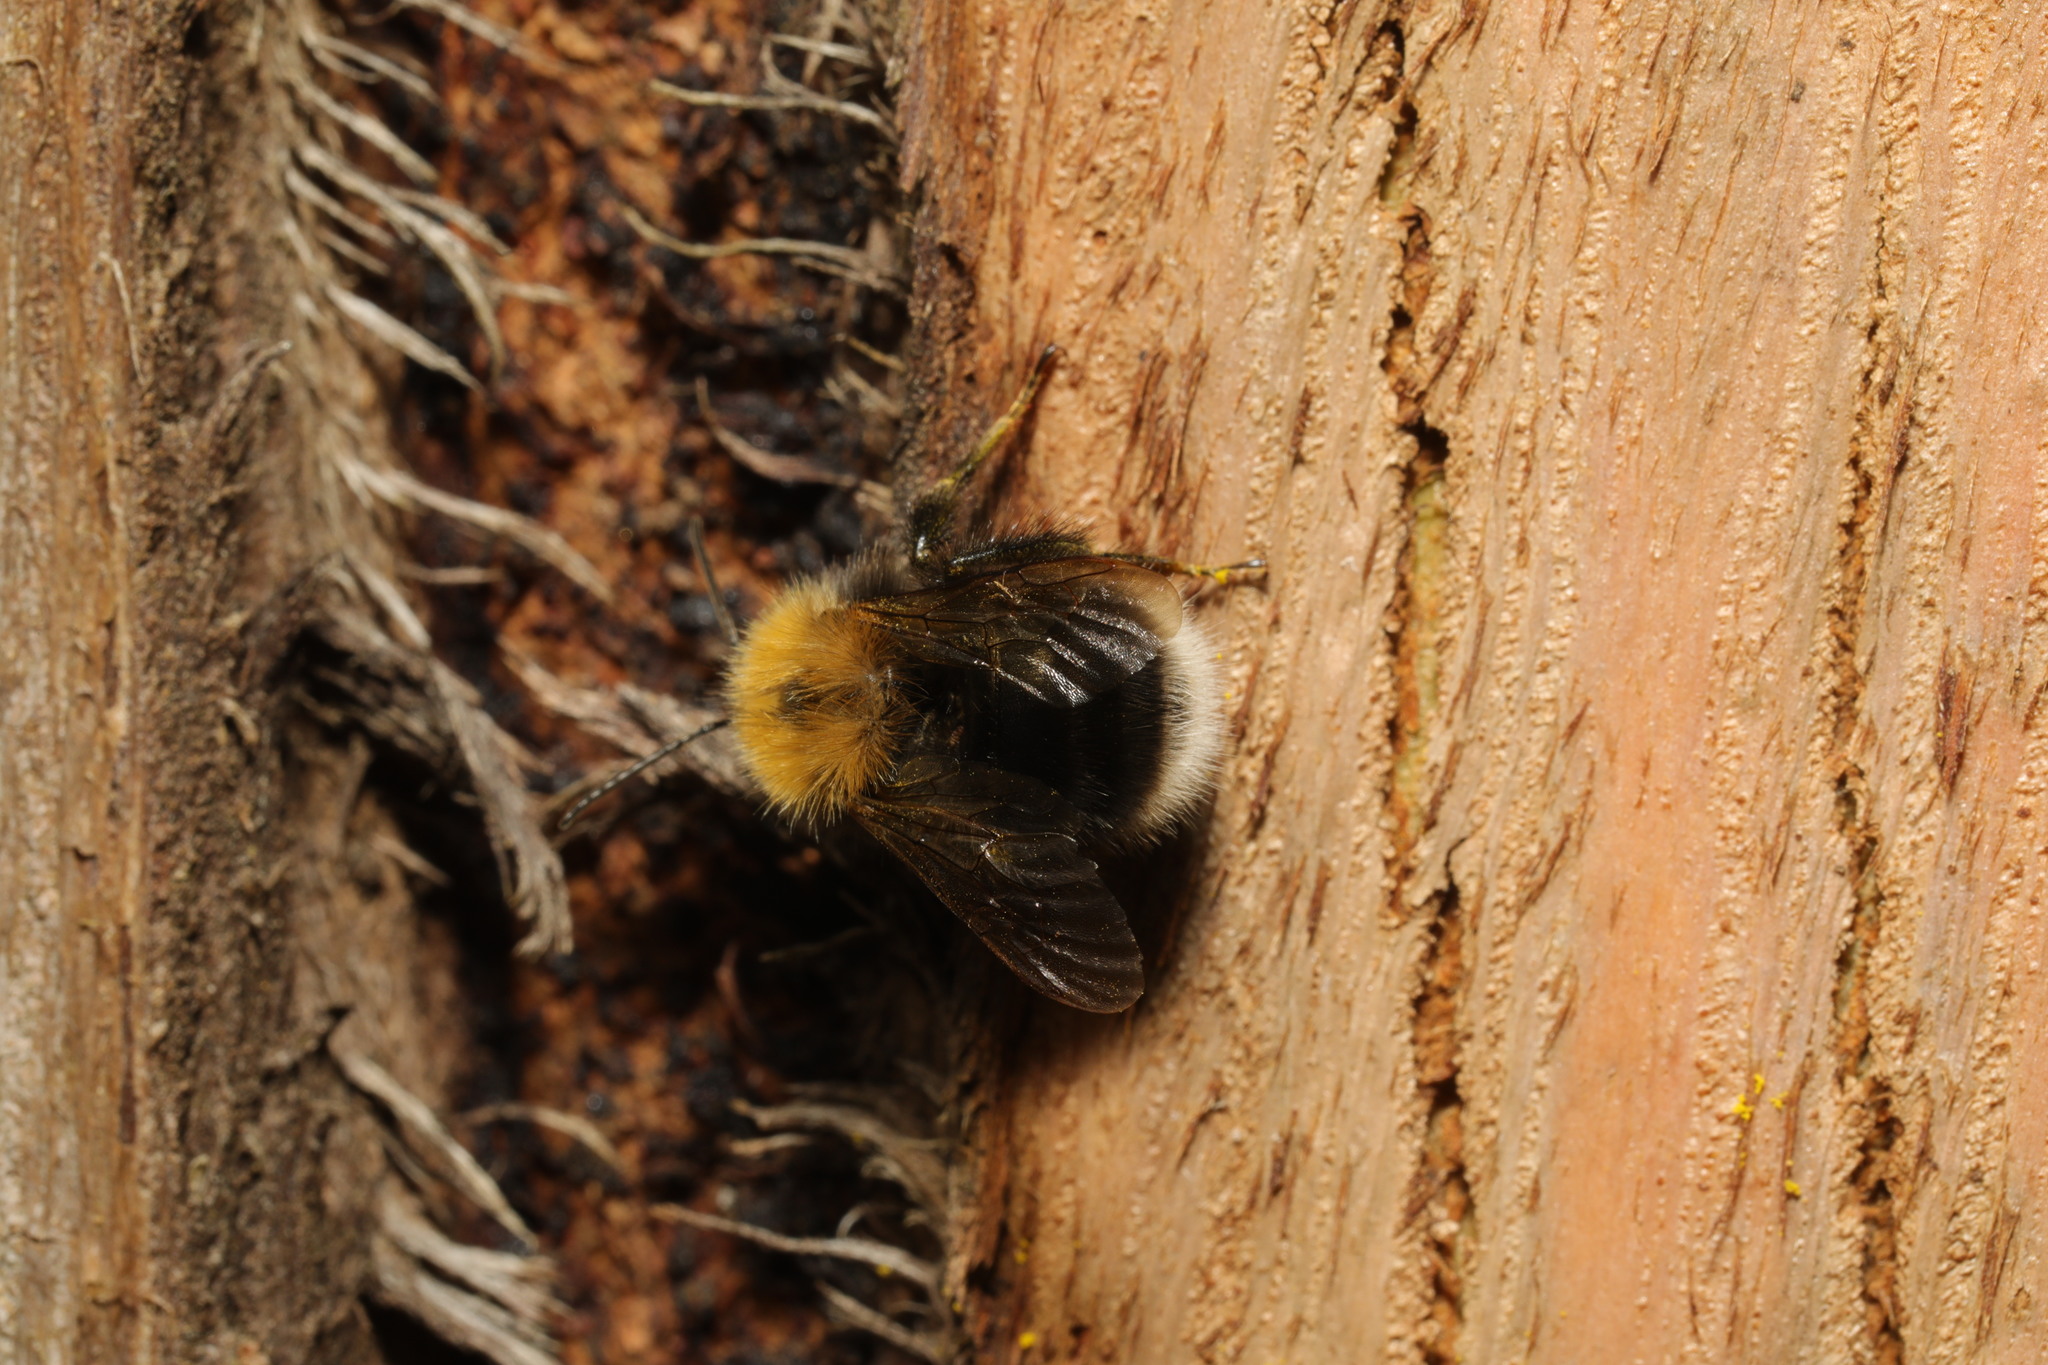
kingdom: Animalia
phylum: Arthropoda
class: Insecta
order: Hymenoptera
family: Apidae
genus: Bombus
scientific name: Bombus hypnorum
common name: New garden bumblebee
